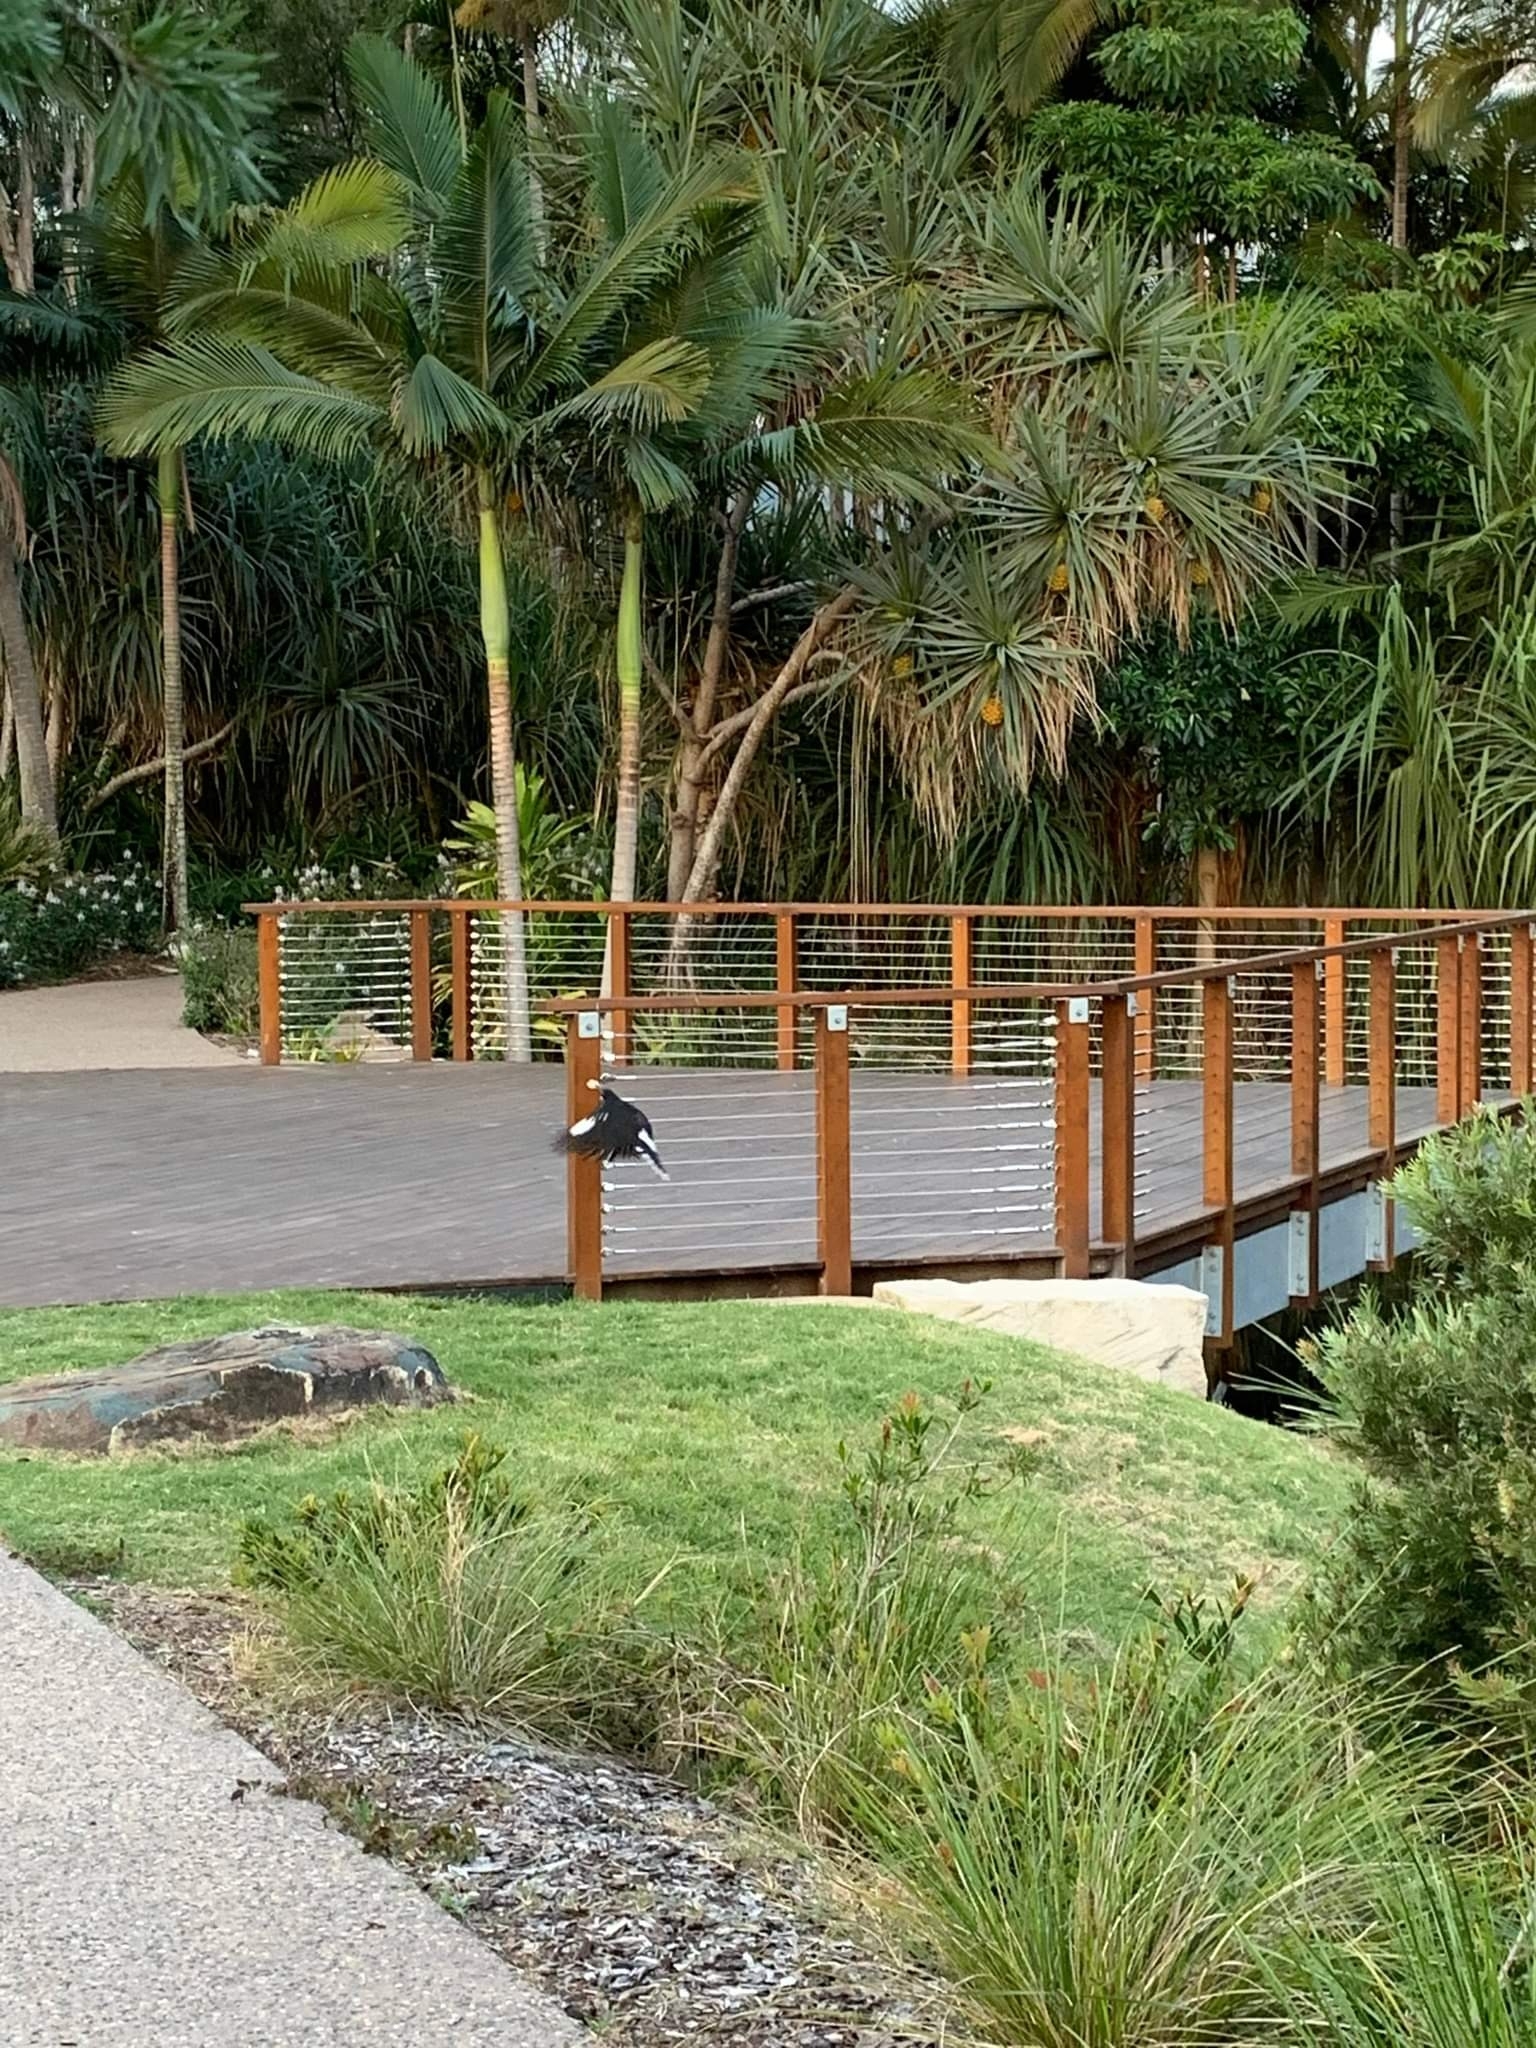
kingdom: Animalia
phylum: Chordata
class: Aves
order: Passeriformes
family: Cracticidae
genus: Strepera
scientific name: Strepera graculina
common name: Pied currawong
